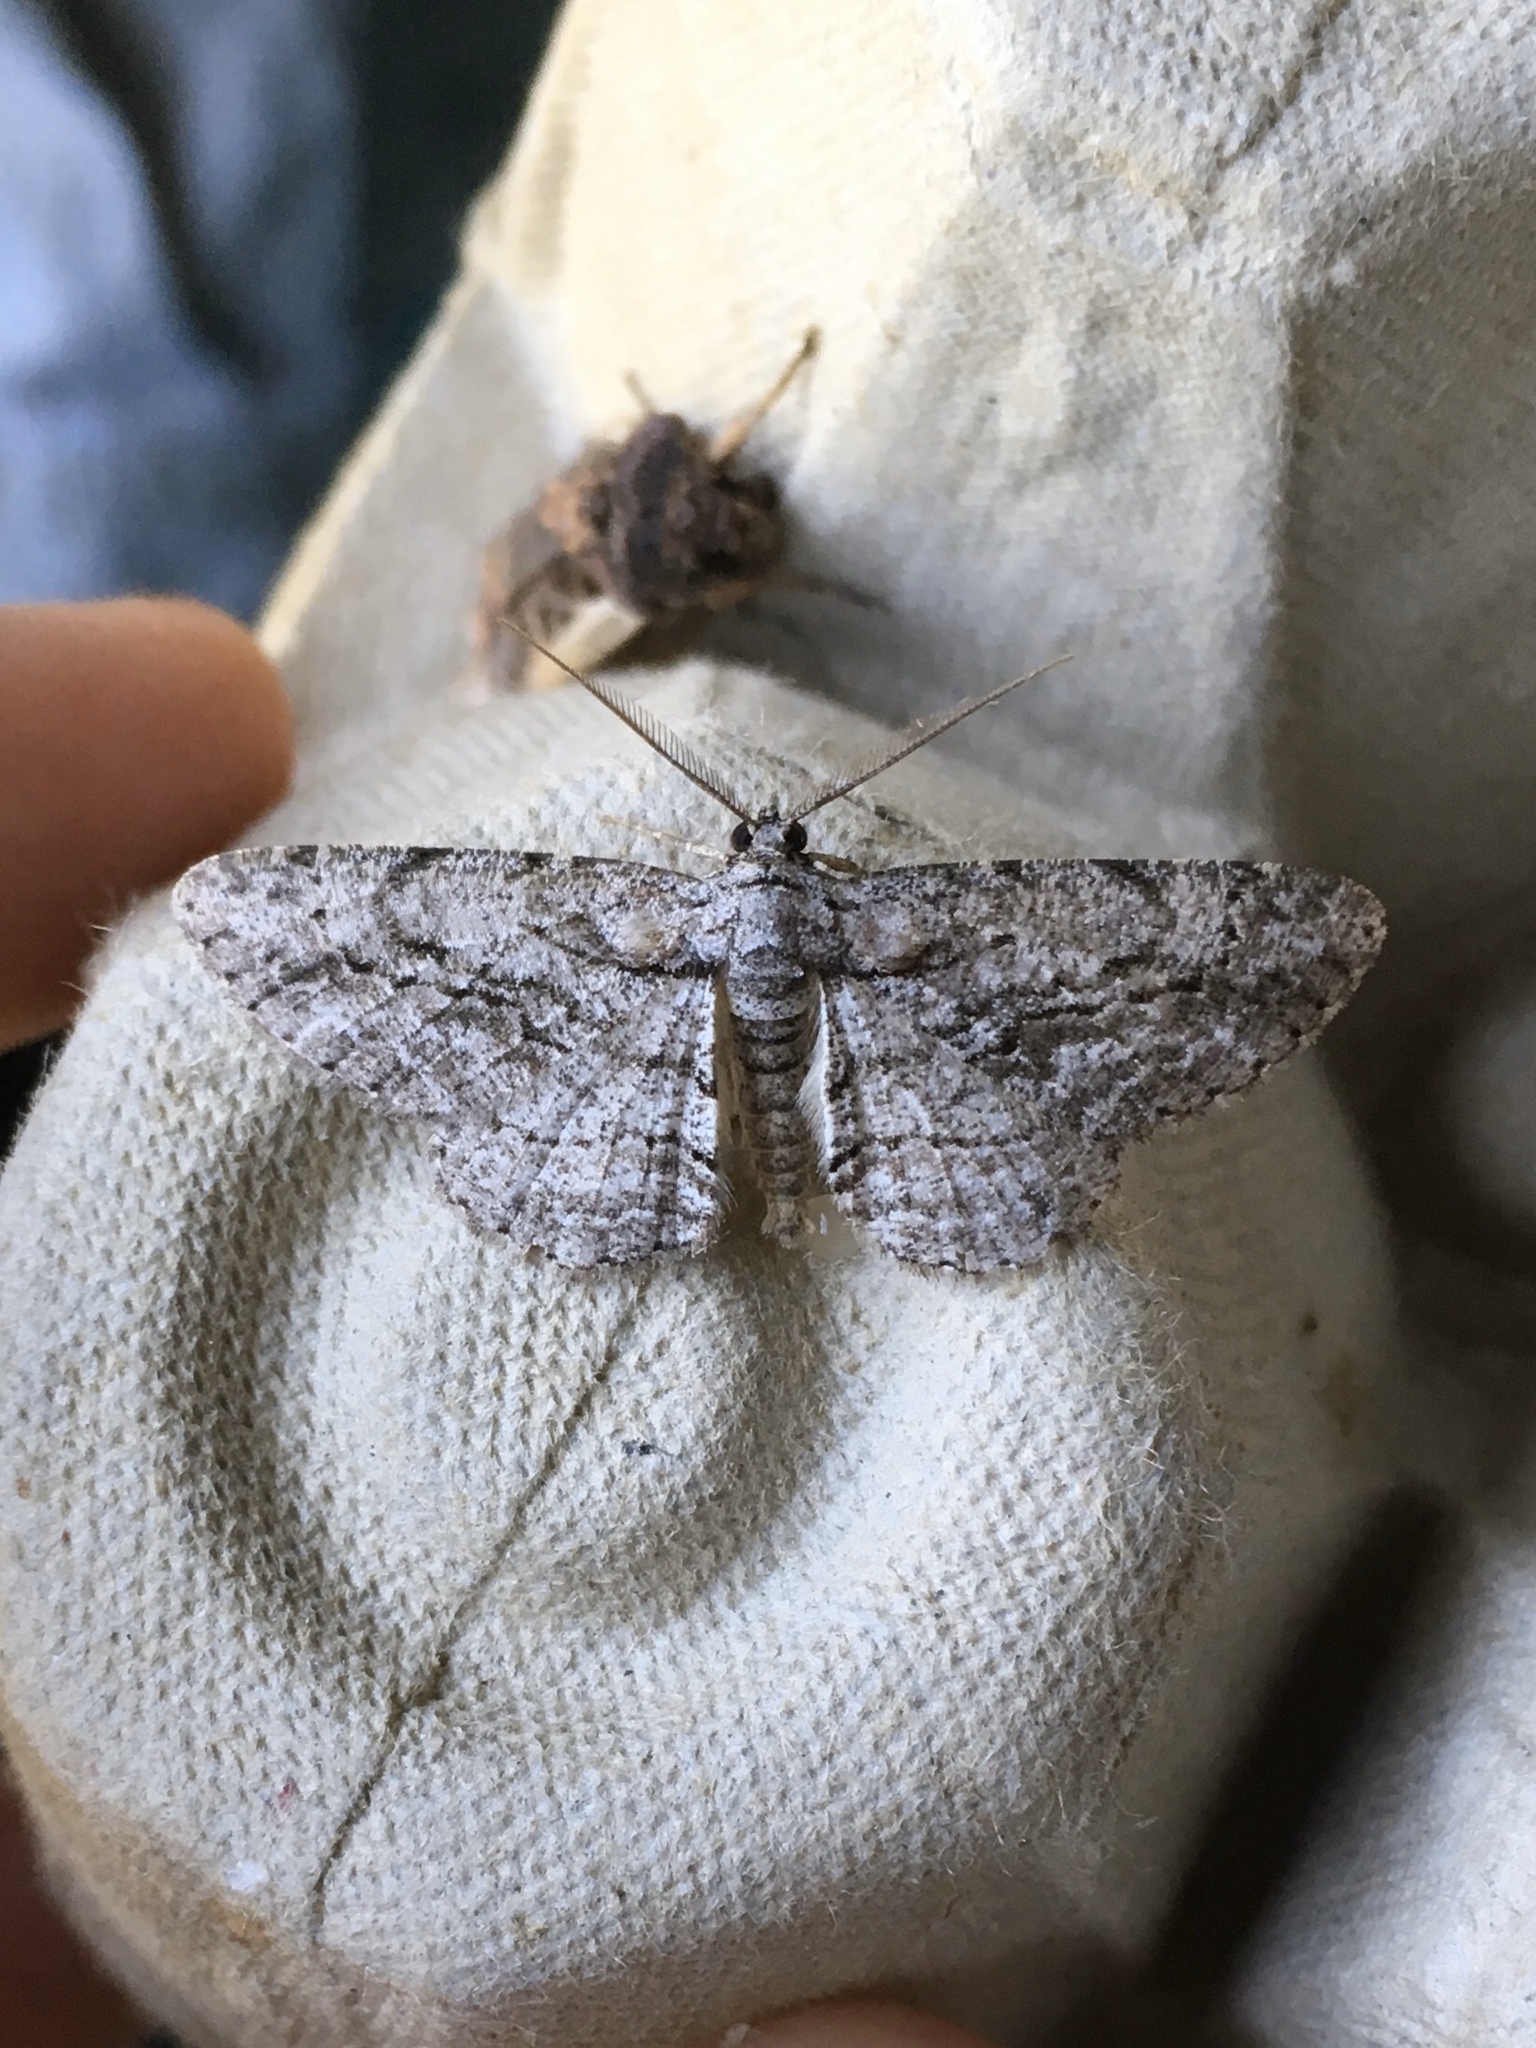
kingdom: Animalia
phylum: Arthropoda
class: Insecta
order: Lepidoptera
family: Geometridae
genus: Anavitrinella
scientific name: Anavitrinella pampinaria
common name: Common gray
